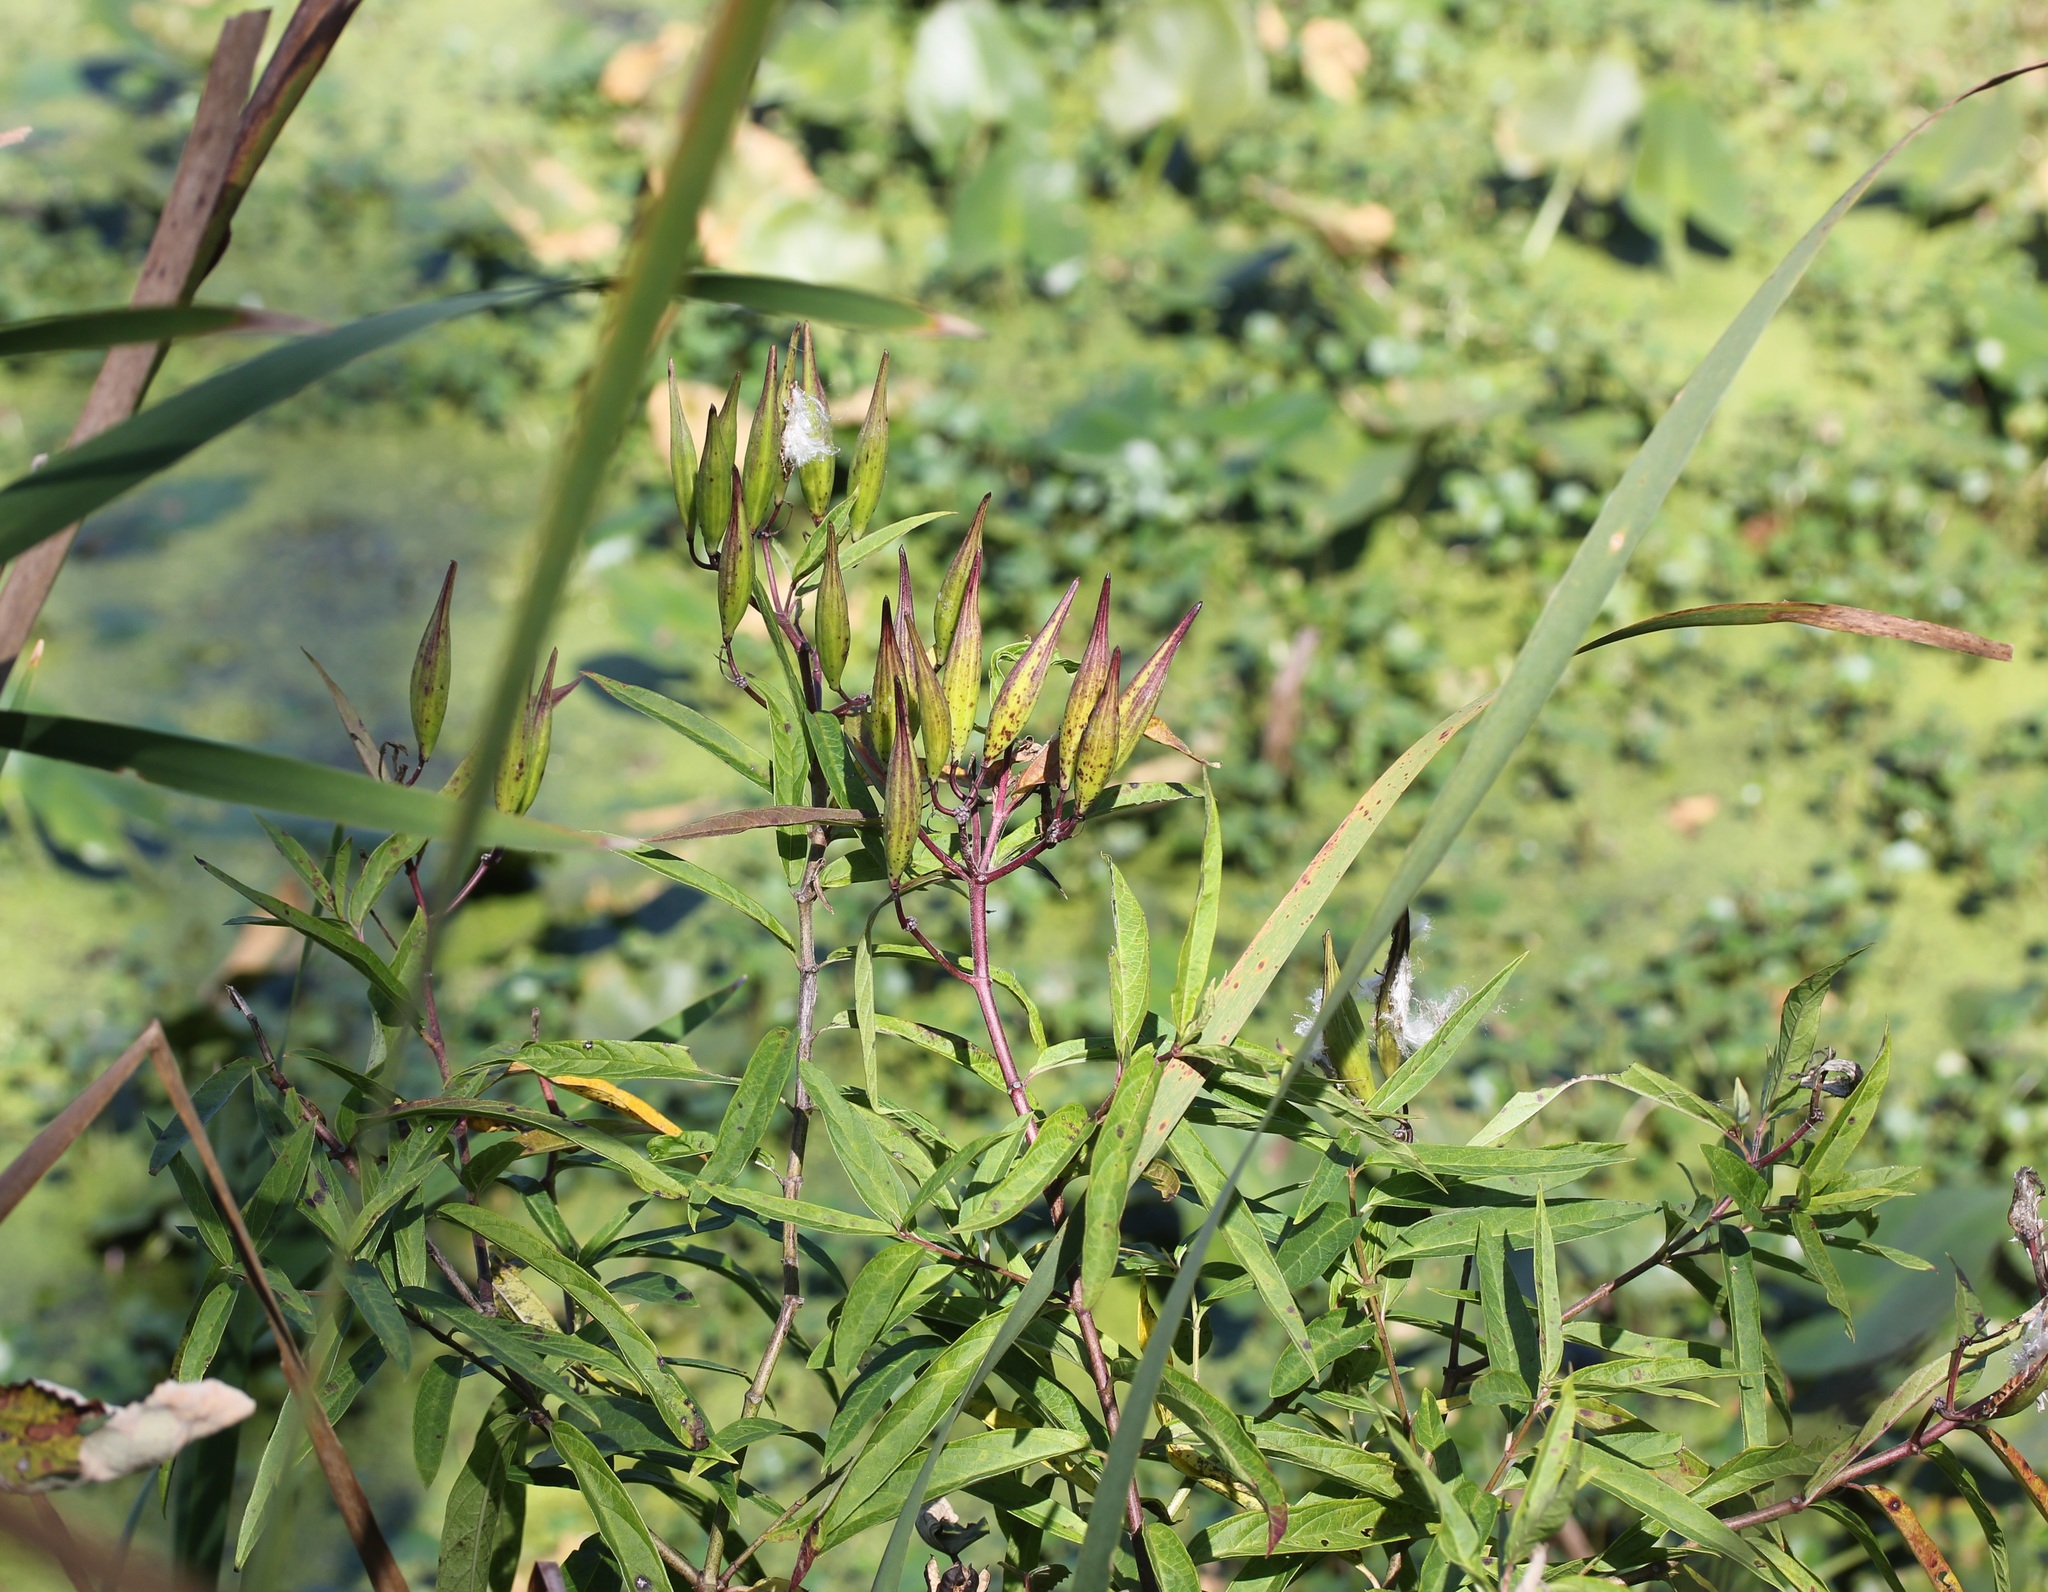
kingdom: Plantae
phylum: Tracheophyta
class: Magnoliopsida
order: Gentianales
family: Apocynaceae
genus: Asclepias
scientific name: Asclepias incarnata
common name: Swamp milkweed
